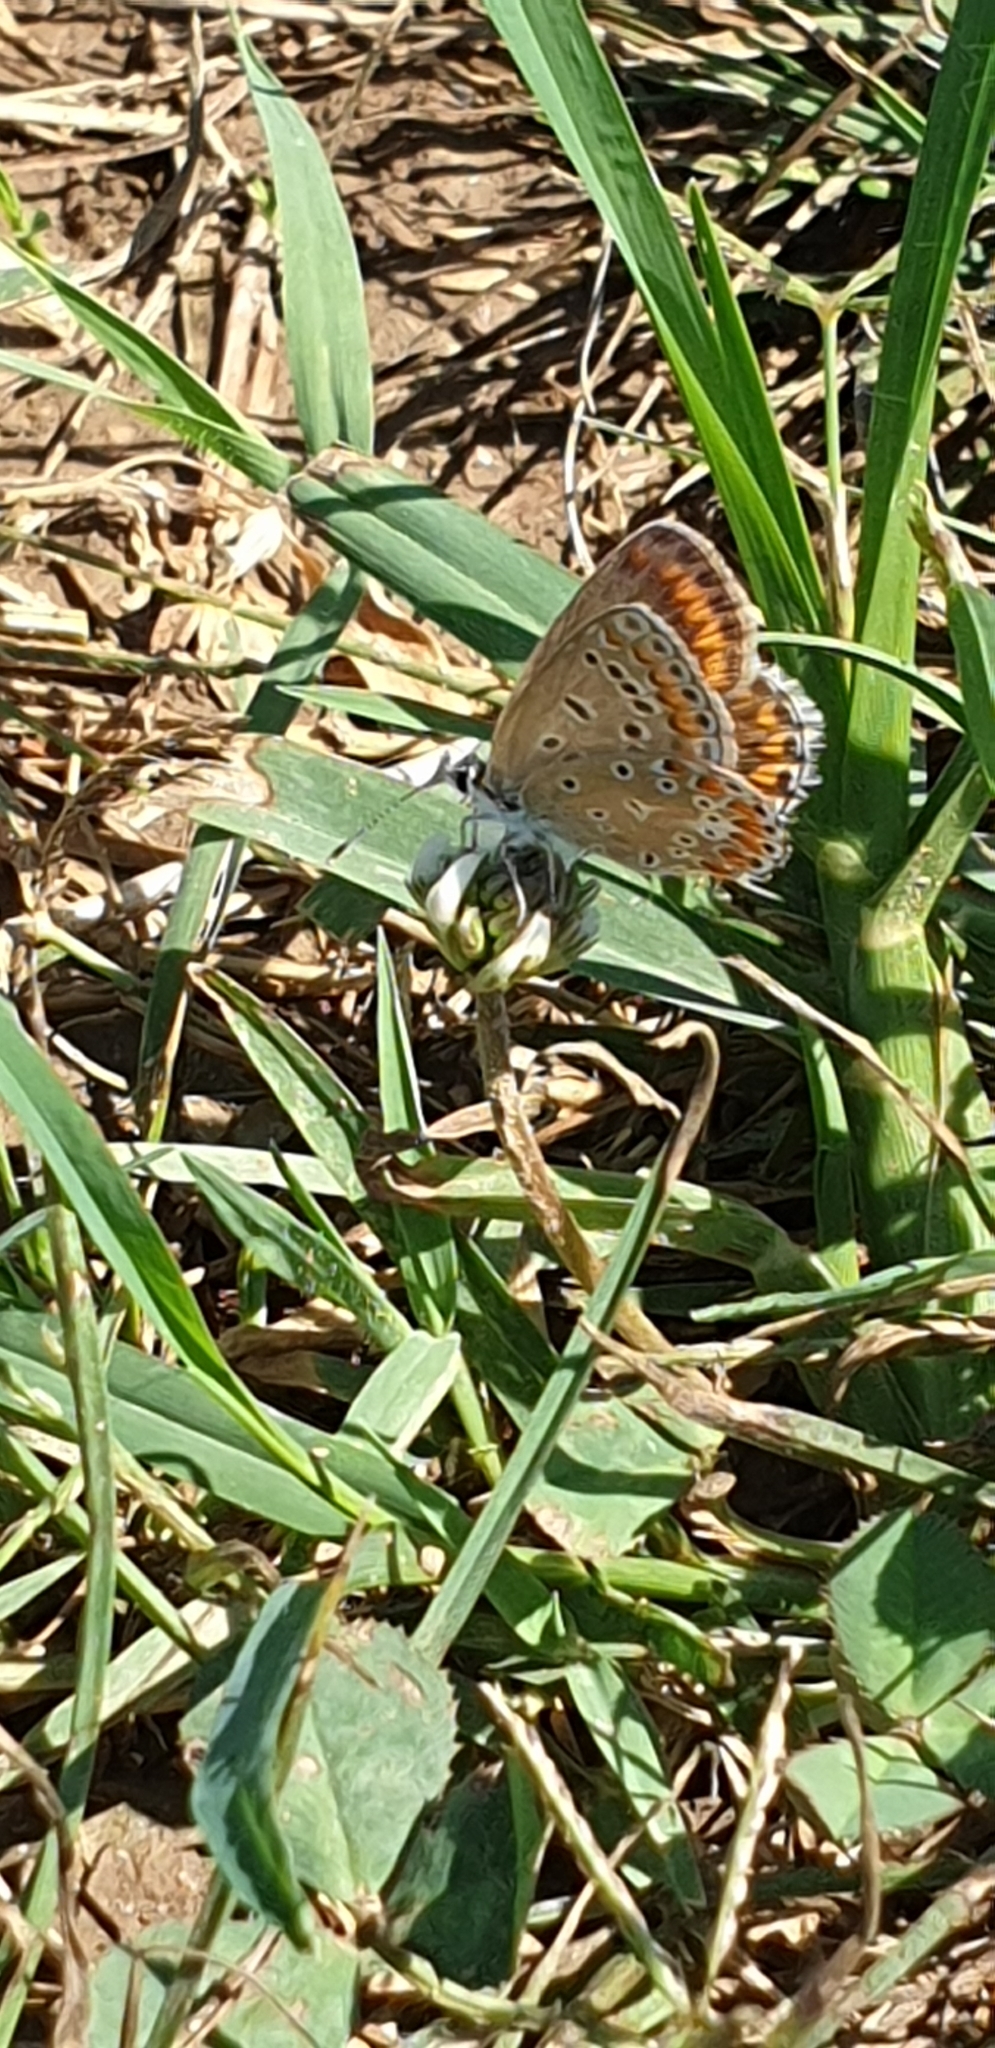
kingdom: Animalia
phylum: Arthropoda
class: Insecta
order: Lepidoptera
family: Lycaenidae
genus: Polyommatus
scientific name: Polyommatus icarus
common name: Common blue
